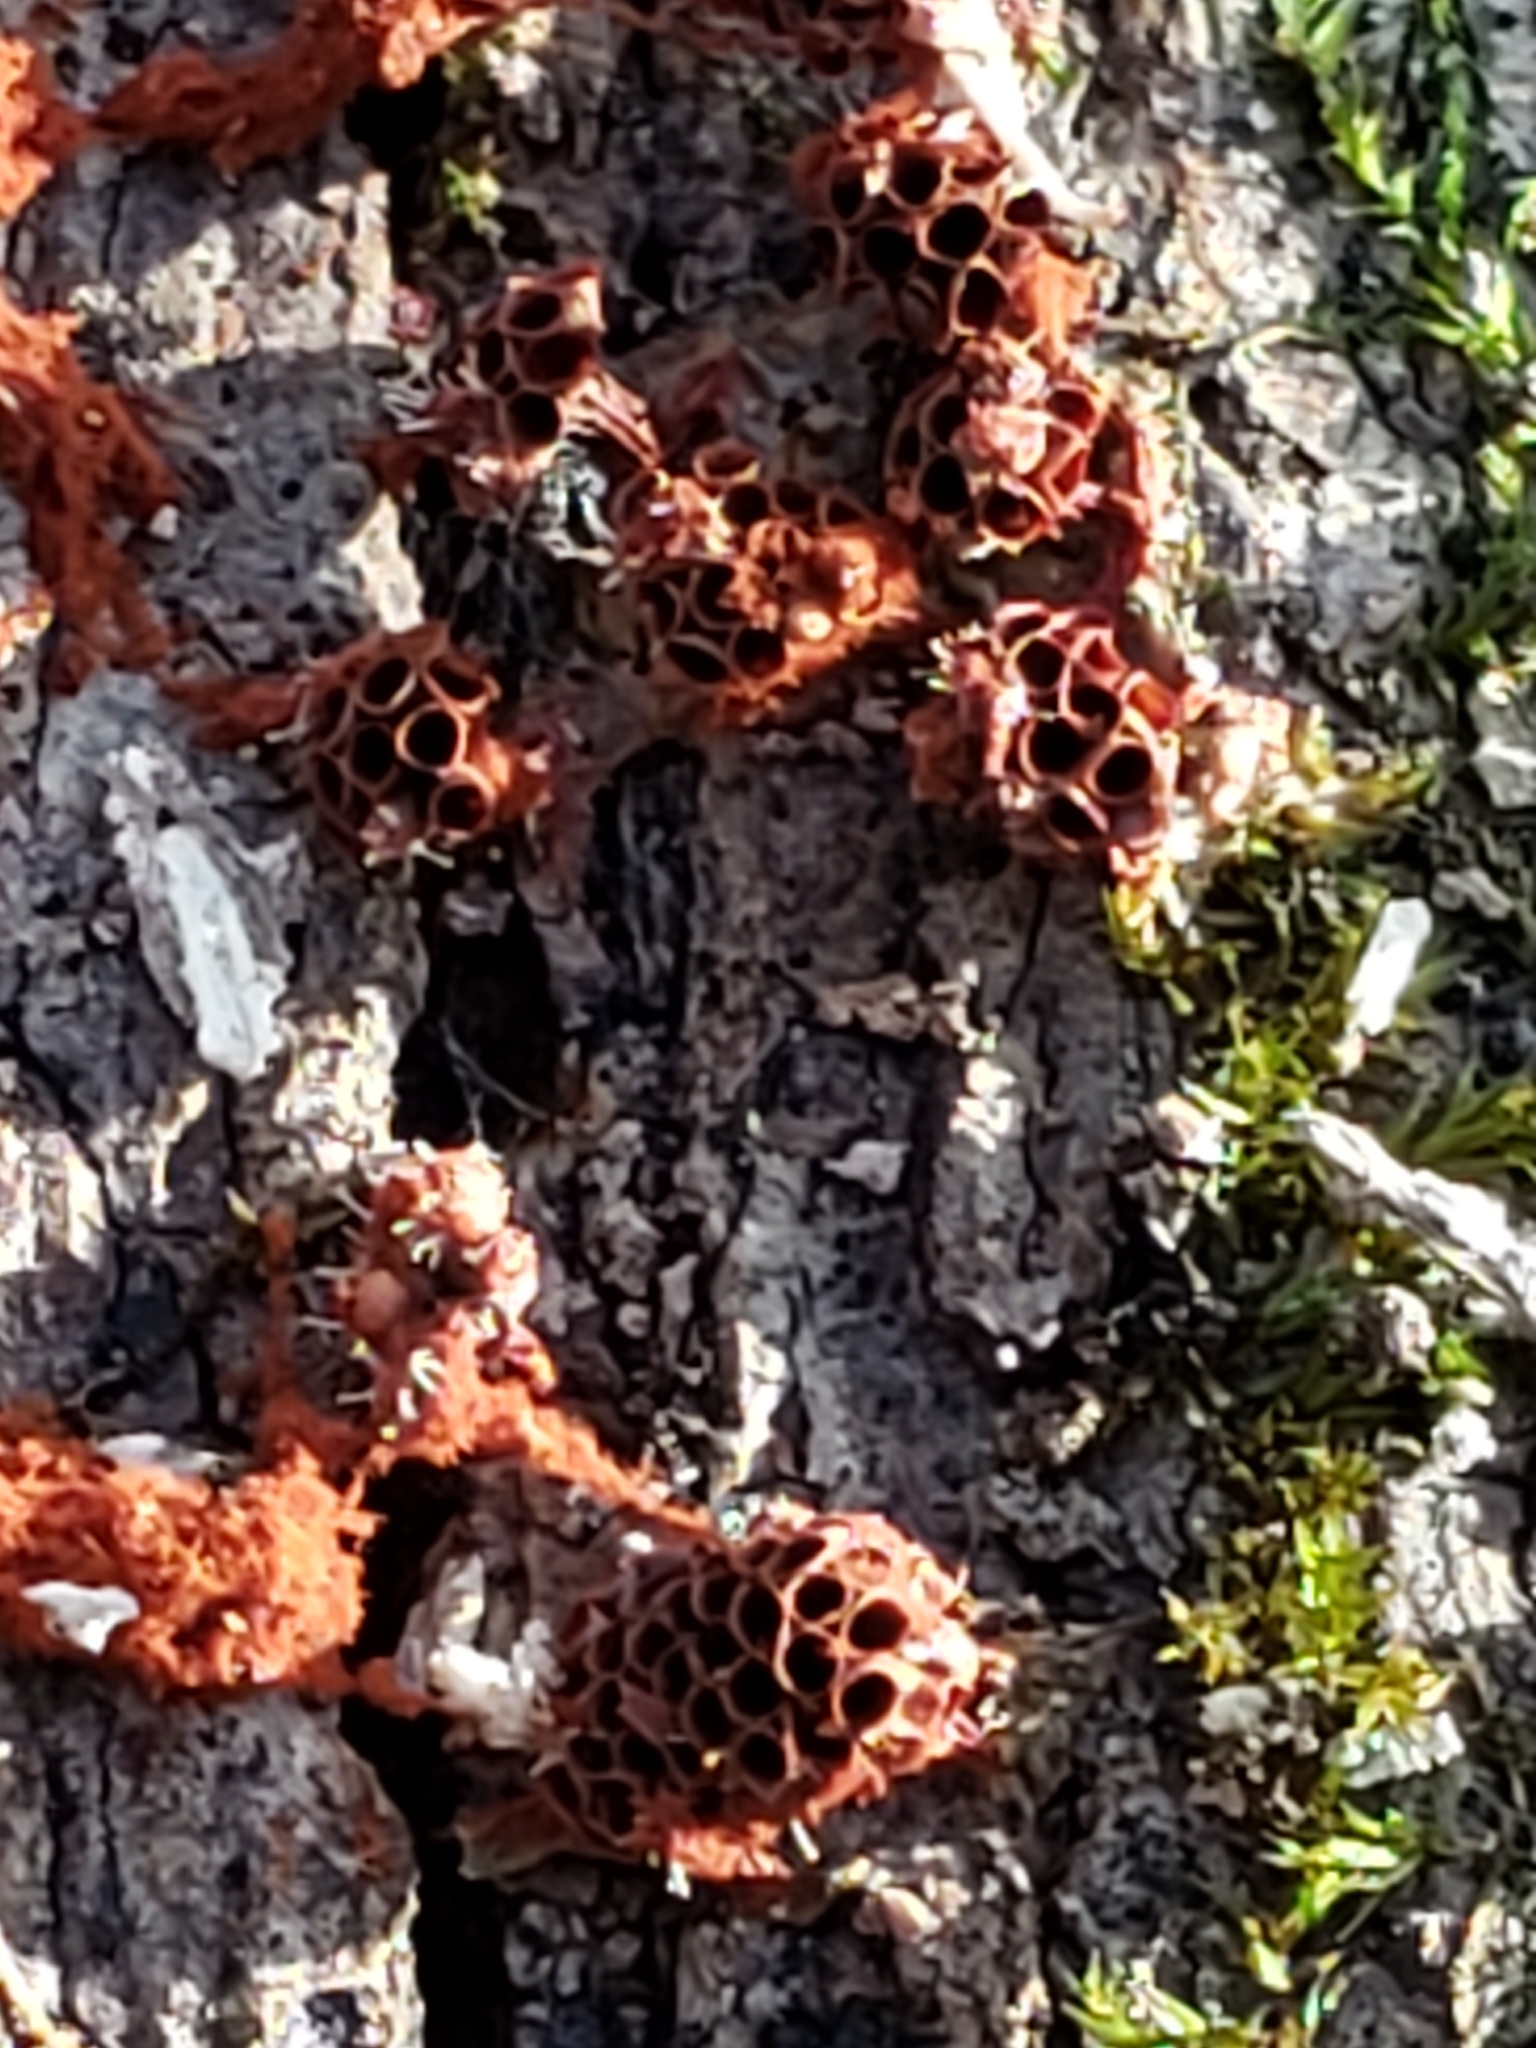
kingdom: Protozoa
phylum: Mycetozoa
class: Myxomycetes
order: Trichiales
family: Trichiaceae
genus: Metatrichia
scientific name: Metatrichia vesparia
